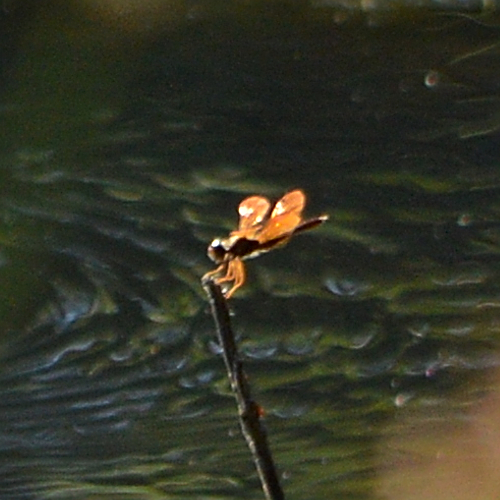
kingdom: Animalia
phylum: Arthropoda
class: Insecta
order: Odonata
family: Libellulidae
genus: Perithemis
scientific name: Perithemis tenera
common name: Eastern amberwing
